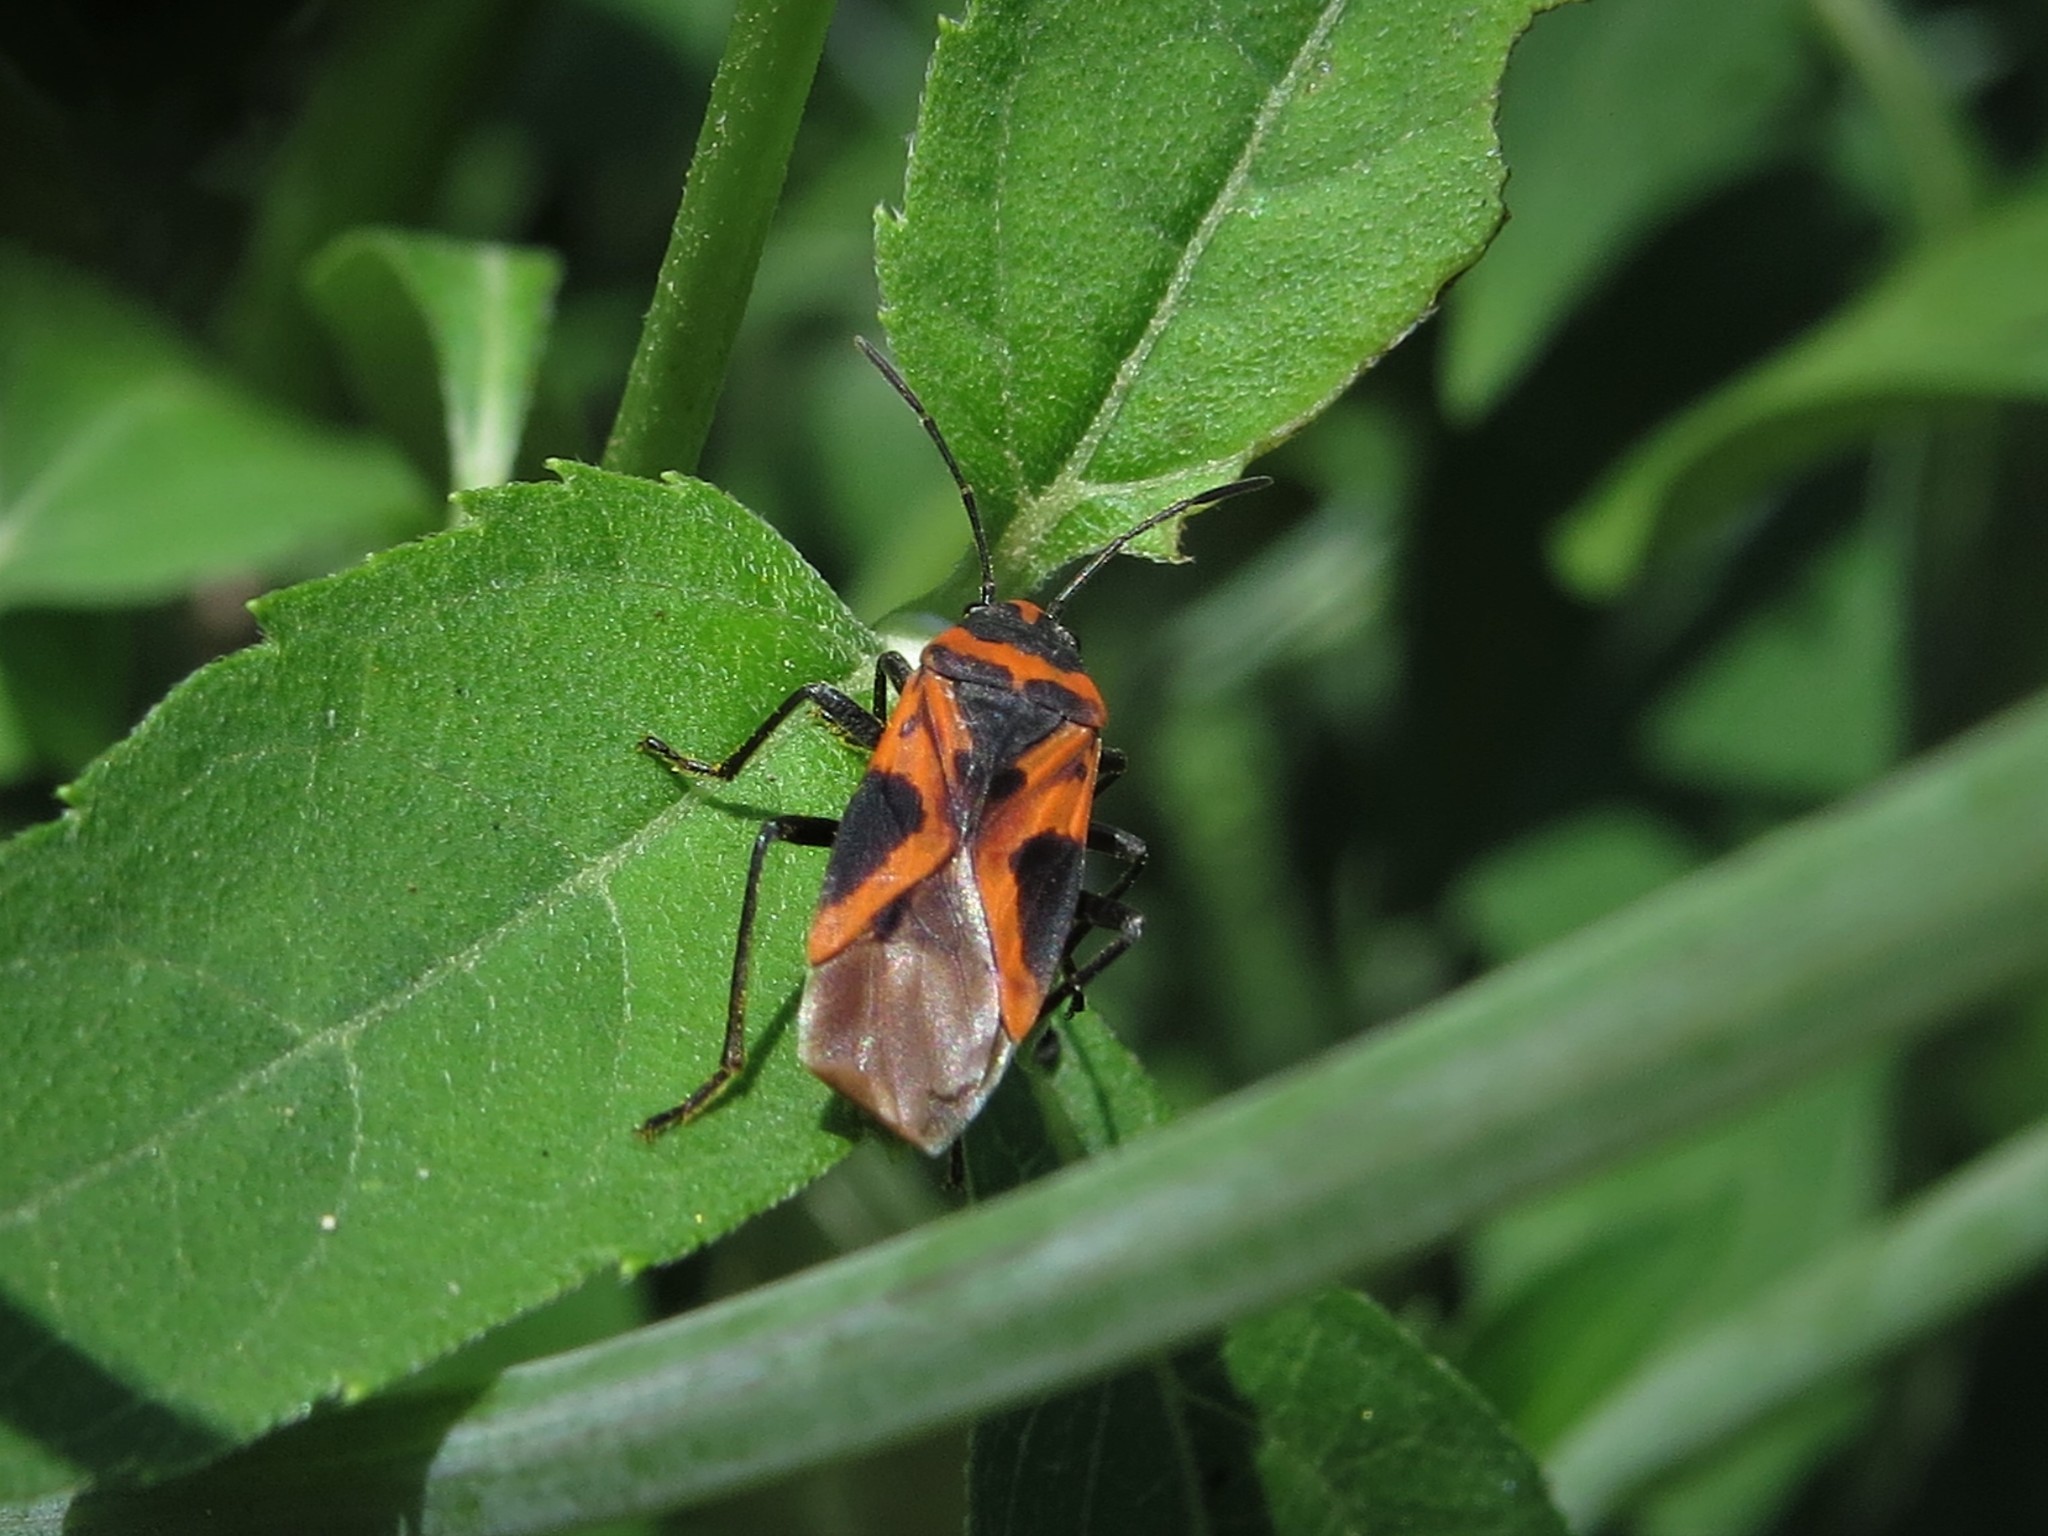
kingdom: Animalia
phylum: Arthropoda
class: Insecta
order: Hemiptera
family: Lygaeidae
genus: Lygaeus
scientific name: Lygaeus turcicus
